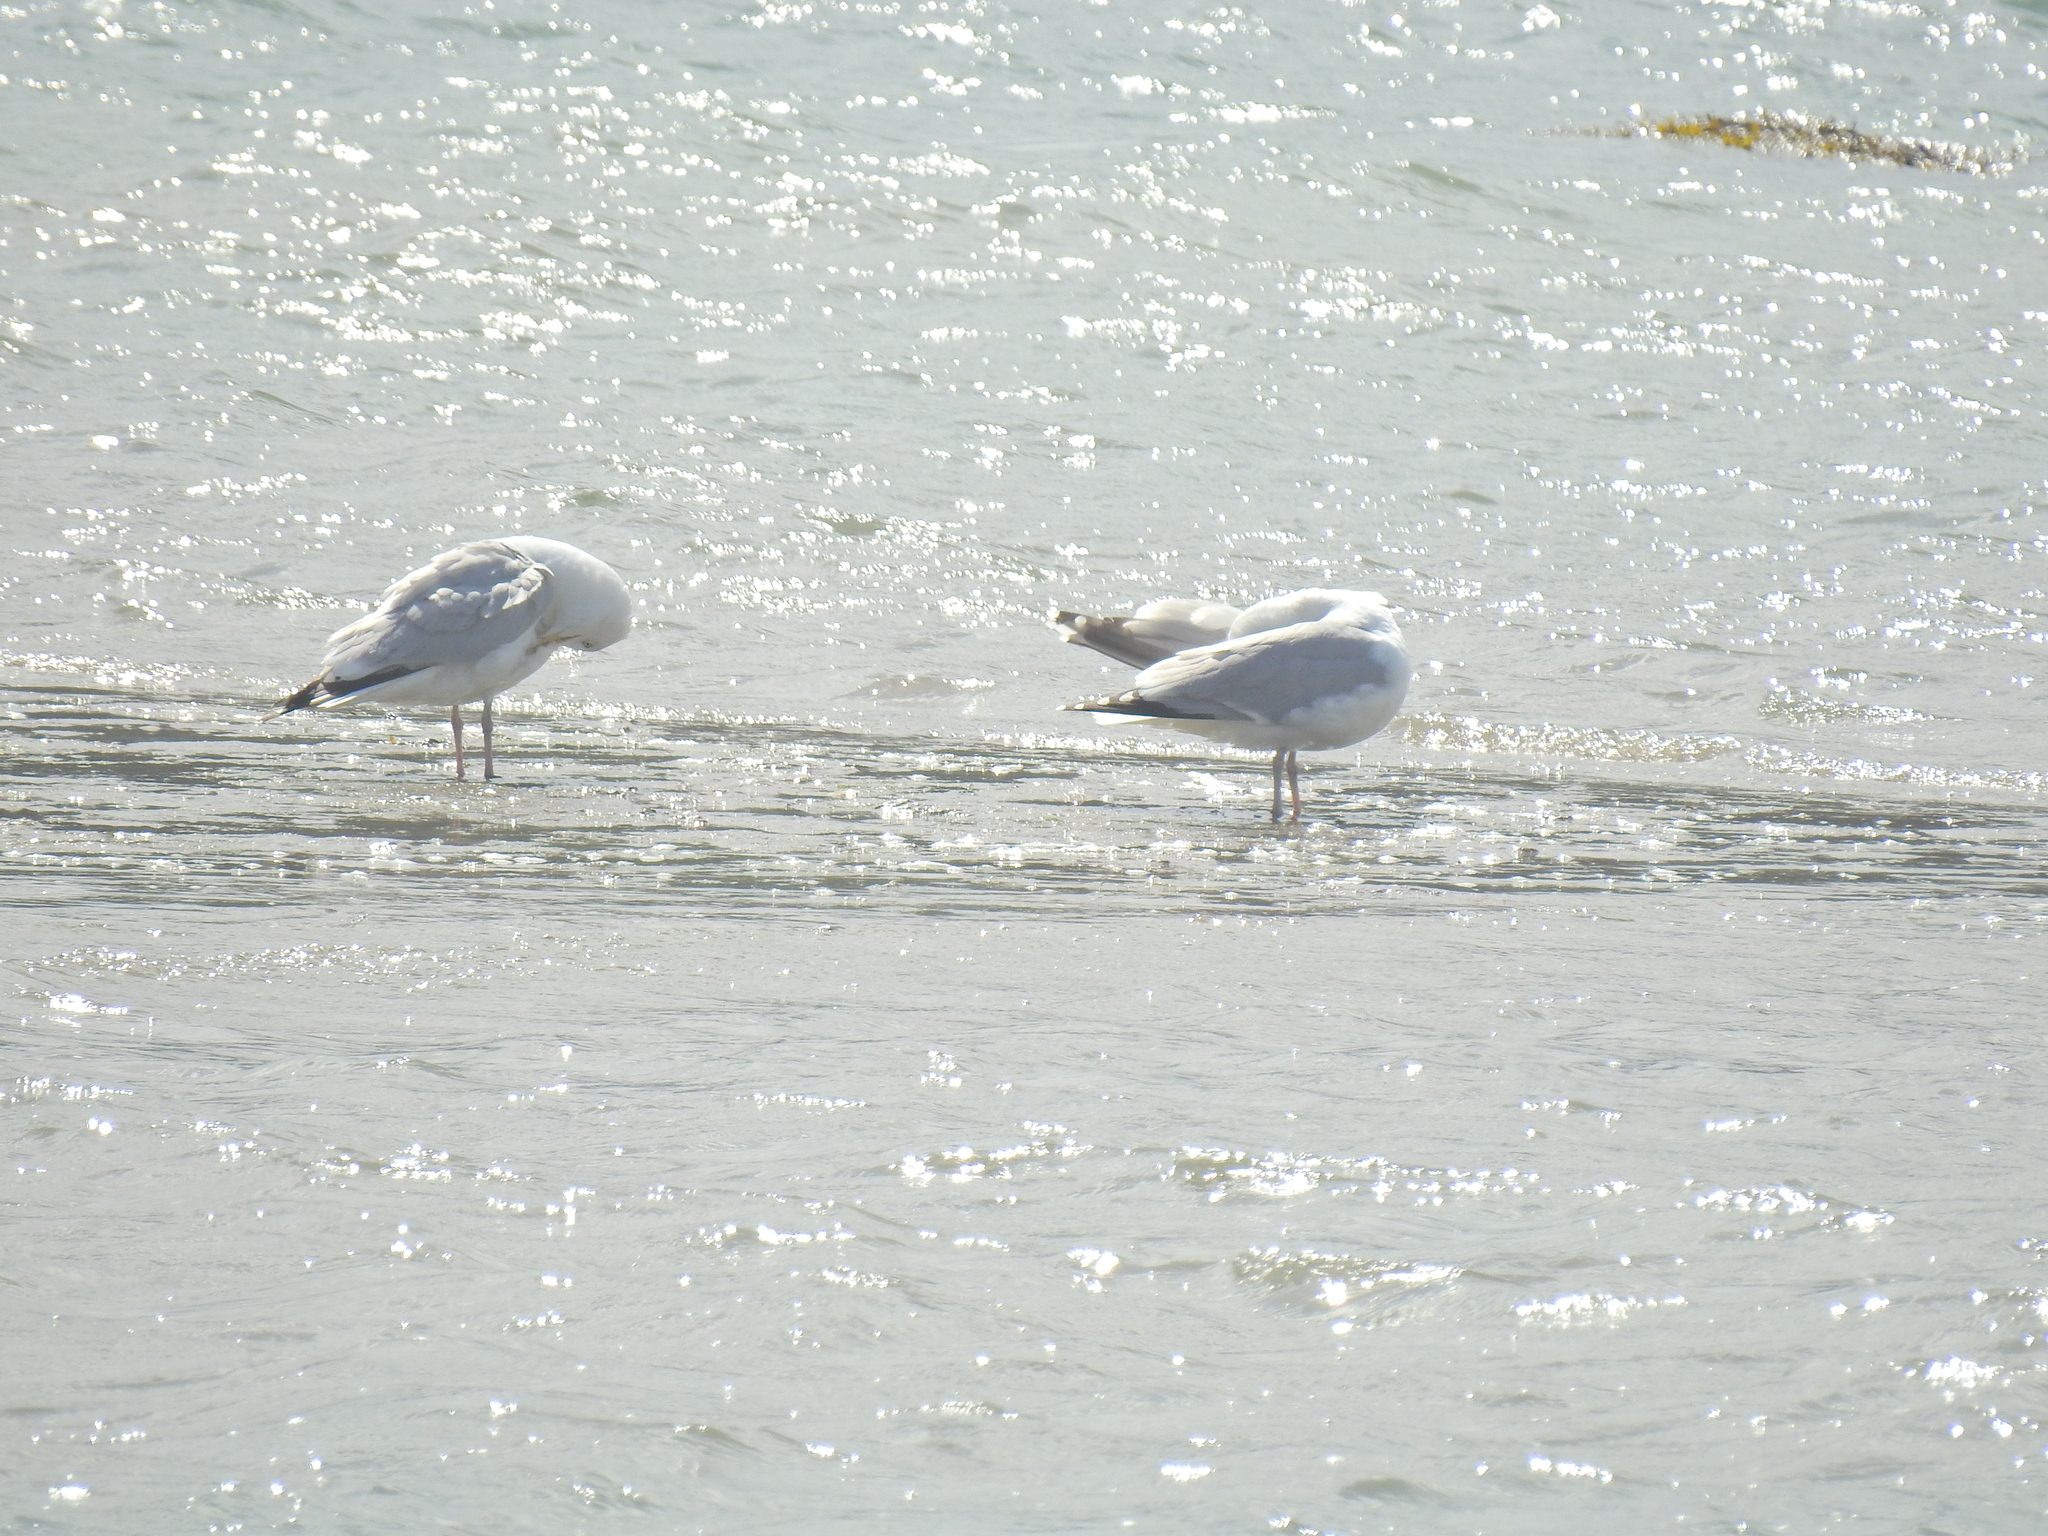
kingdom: Animalia
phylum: Chordata
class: Aves
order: Charadriiformes
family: Laridae
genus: Larus
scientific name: Larus argentatus
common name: Herring gull
